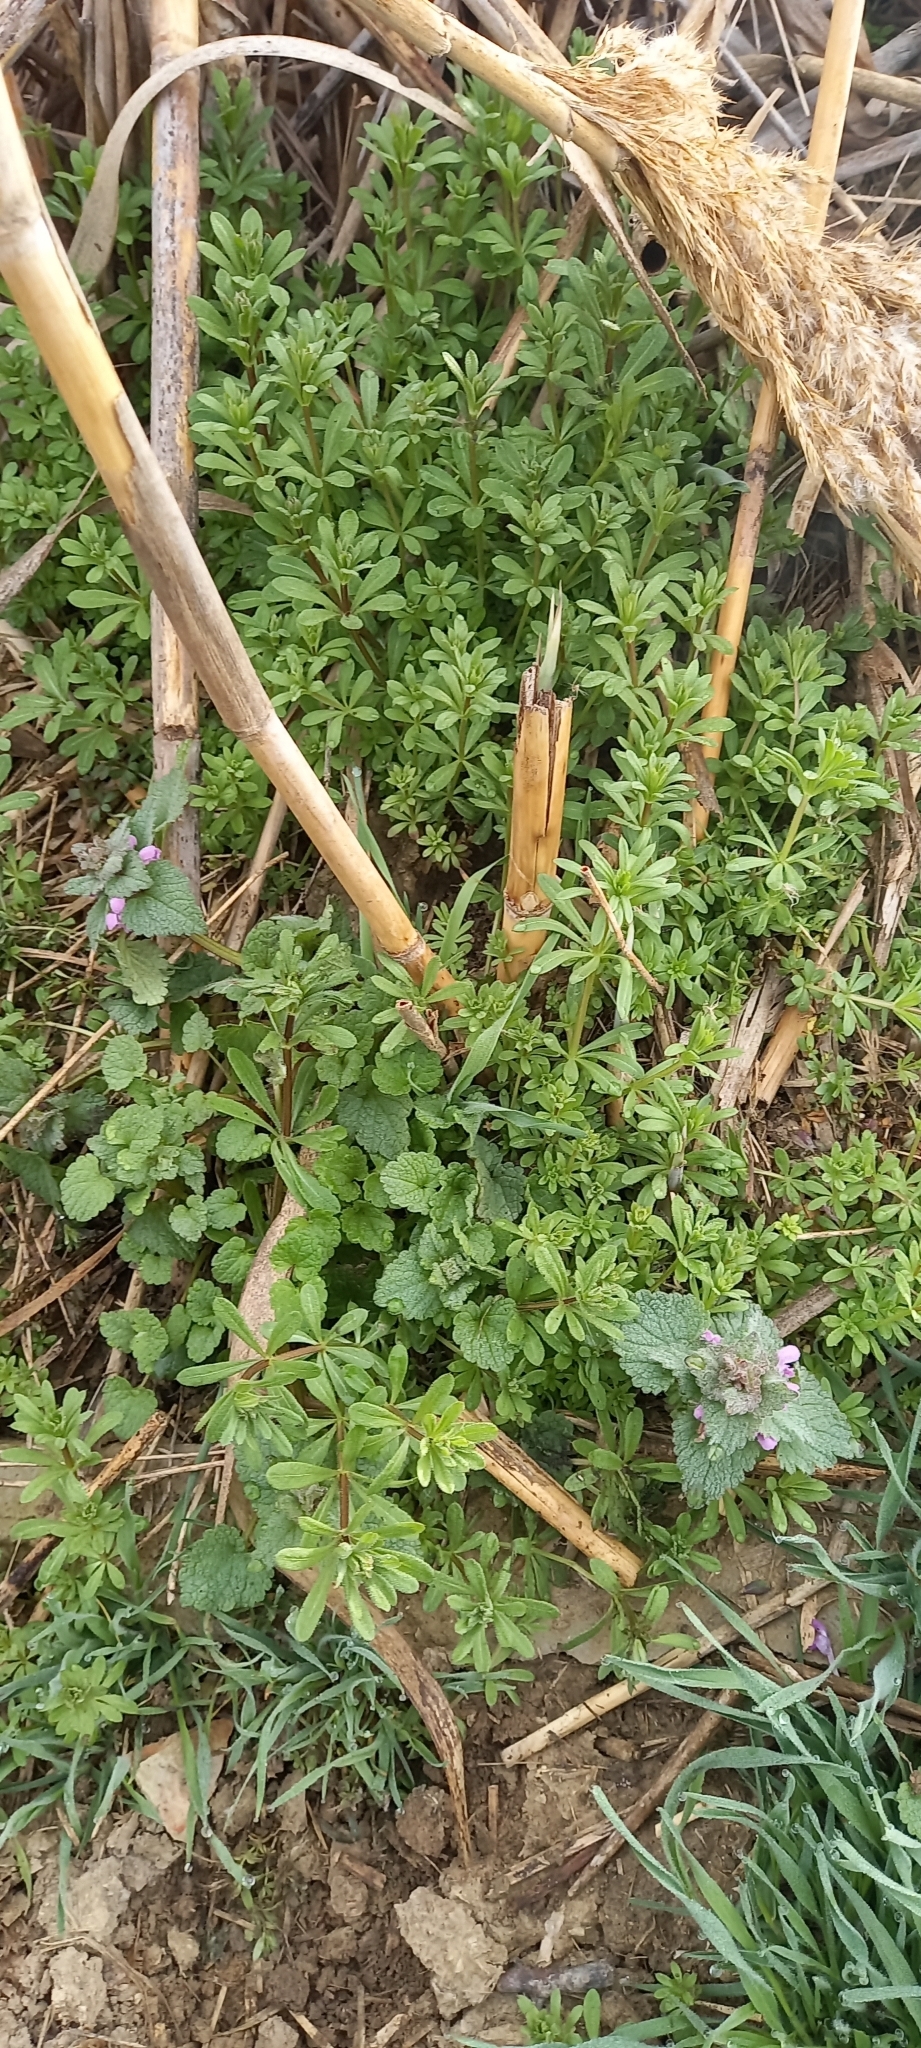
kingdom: Plantae
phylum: Tracheophyta
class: Magnoliopsida
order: Lamiales
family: Lamiaceae
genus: Lamium
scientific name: Lamium purpureum
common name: Red dead-nettle
